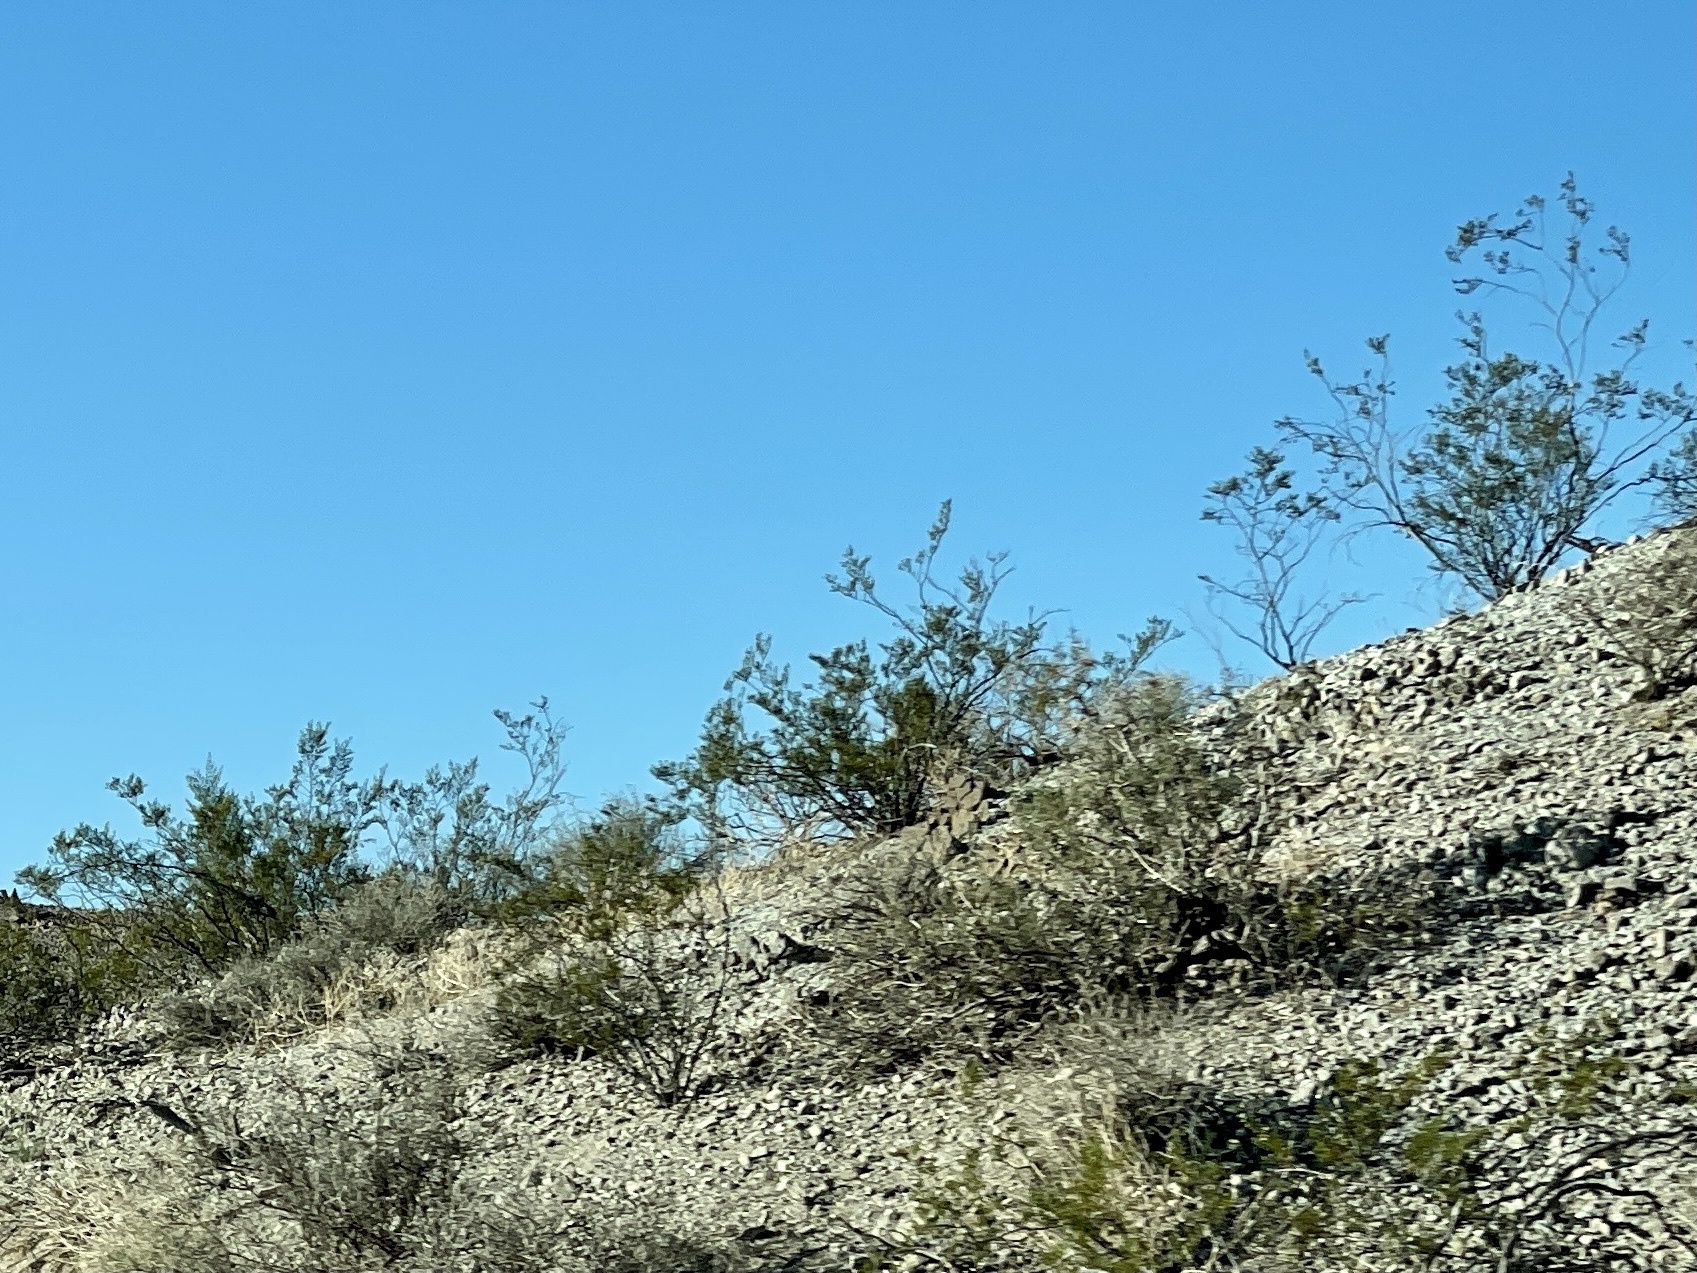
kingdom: Plantae
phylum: Tracheophyta
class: Magnoliopsida
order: Zygophyllales
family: Zygophyllaceae
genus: Larrea
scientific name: Larrea tridentata
